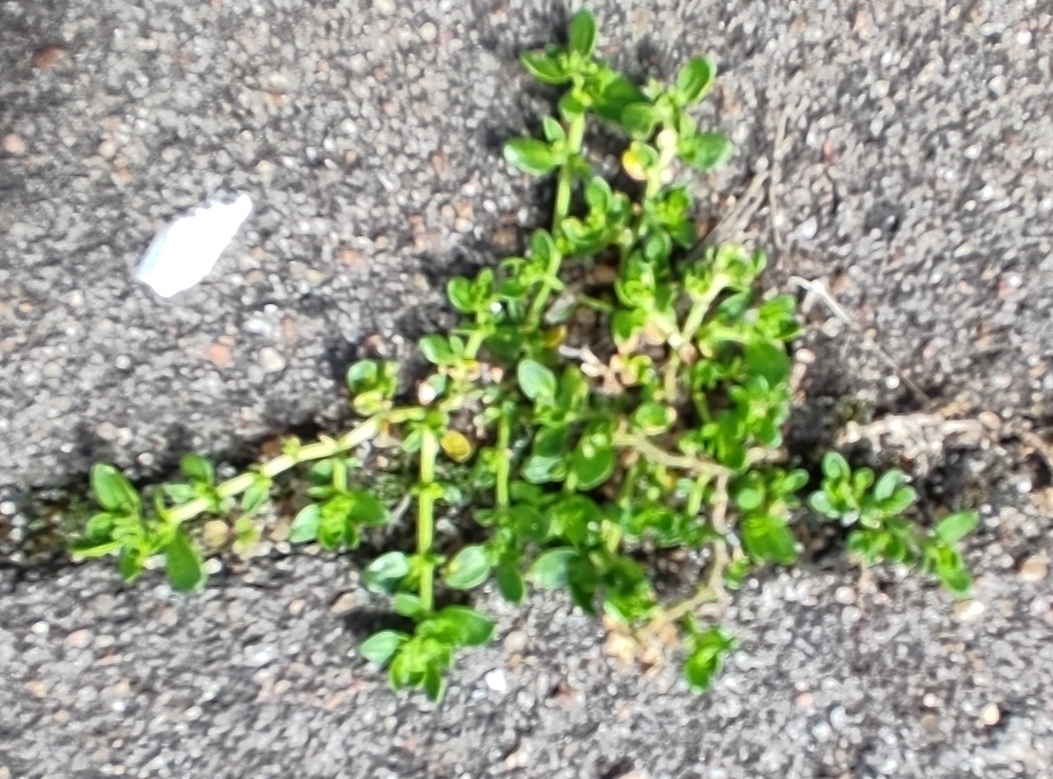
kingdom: Plantae
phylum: Tracheophyta
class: Magnoliopsida
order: Caryophyllales
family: Caryophyllaceae
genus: Herniaria
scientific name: Herniaria glabra
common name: Smooth rupturewort
